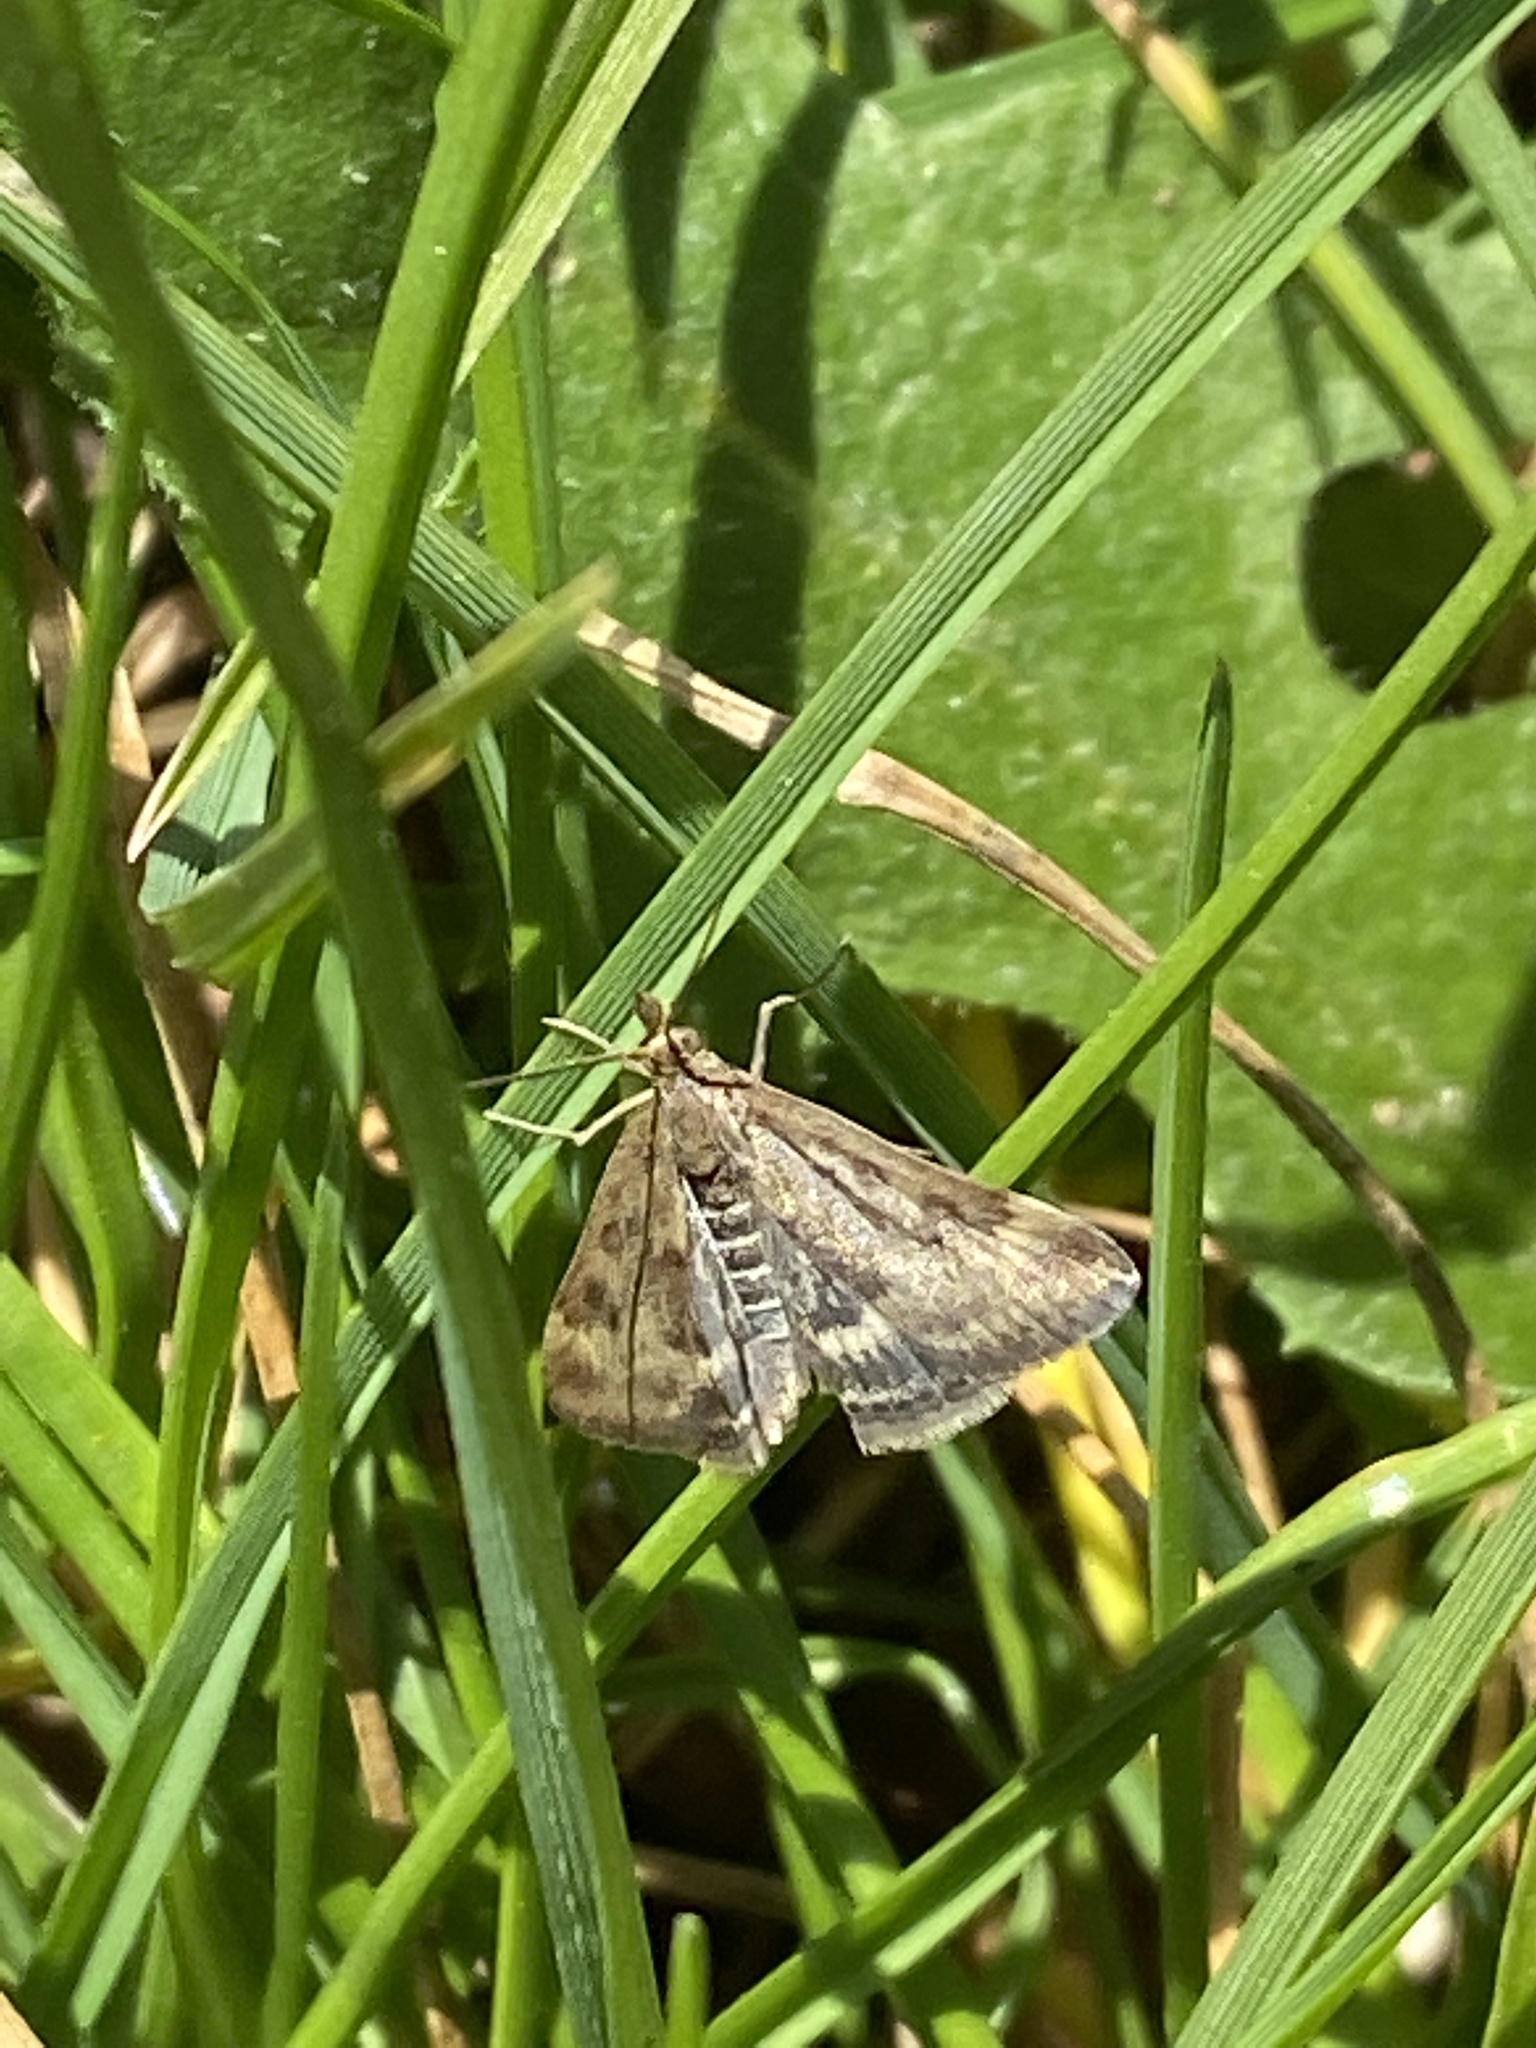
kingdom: Animalia
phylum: Arthropoda
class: Insecta
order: Lepidoptera
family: Crambidae
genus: Pyrausta
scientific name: Pyrausta despicata
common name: Straw-barred pearl
